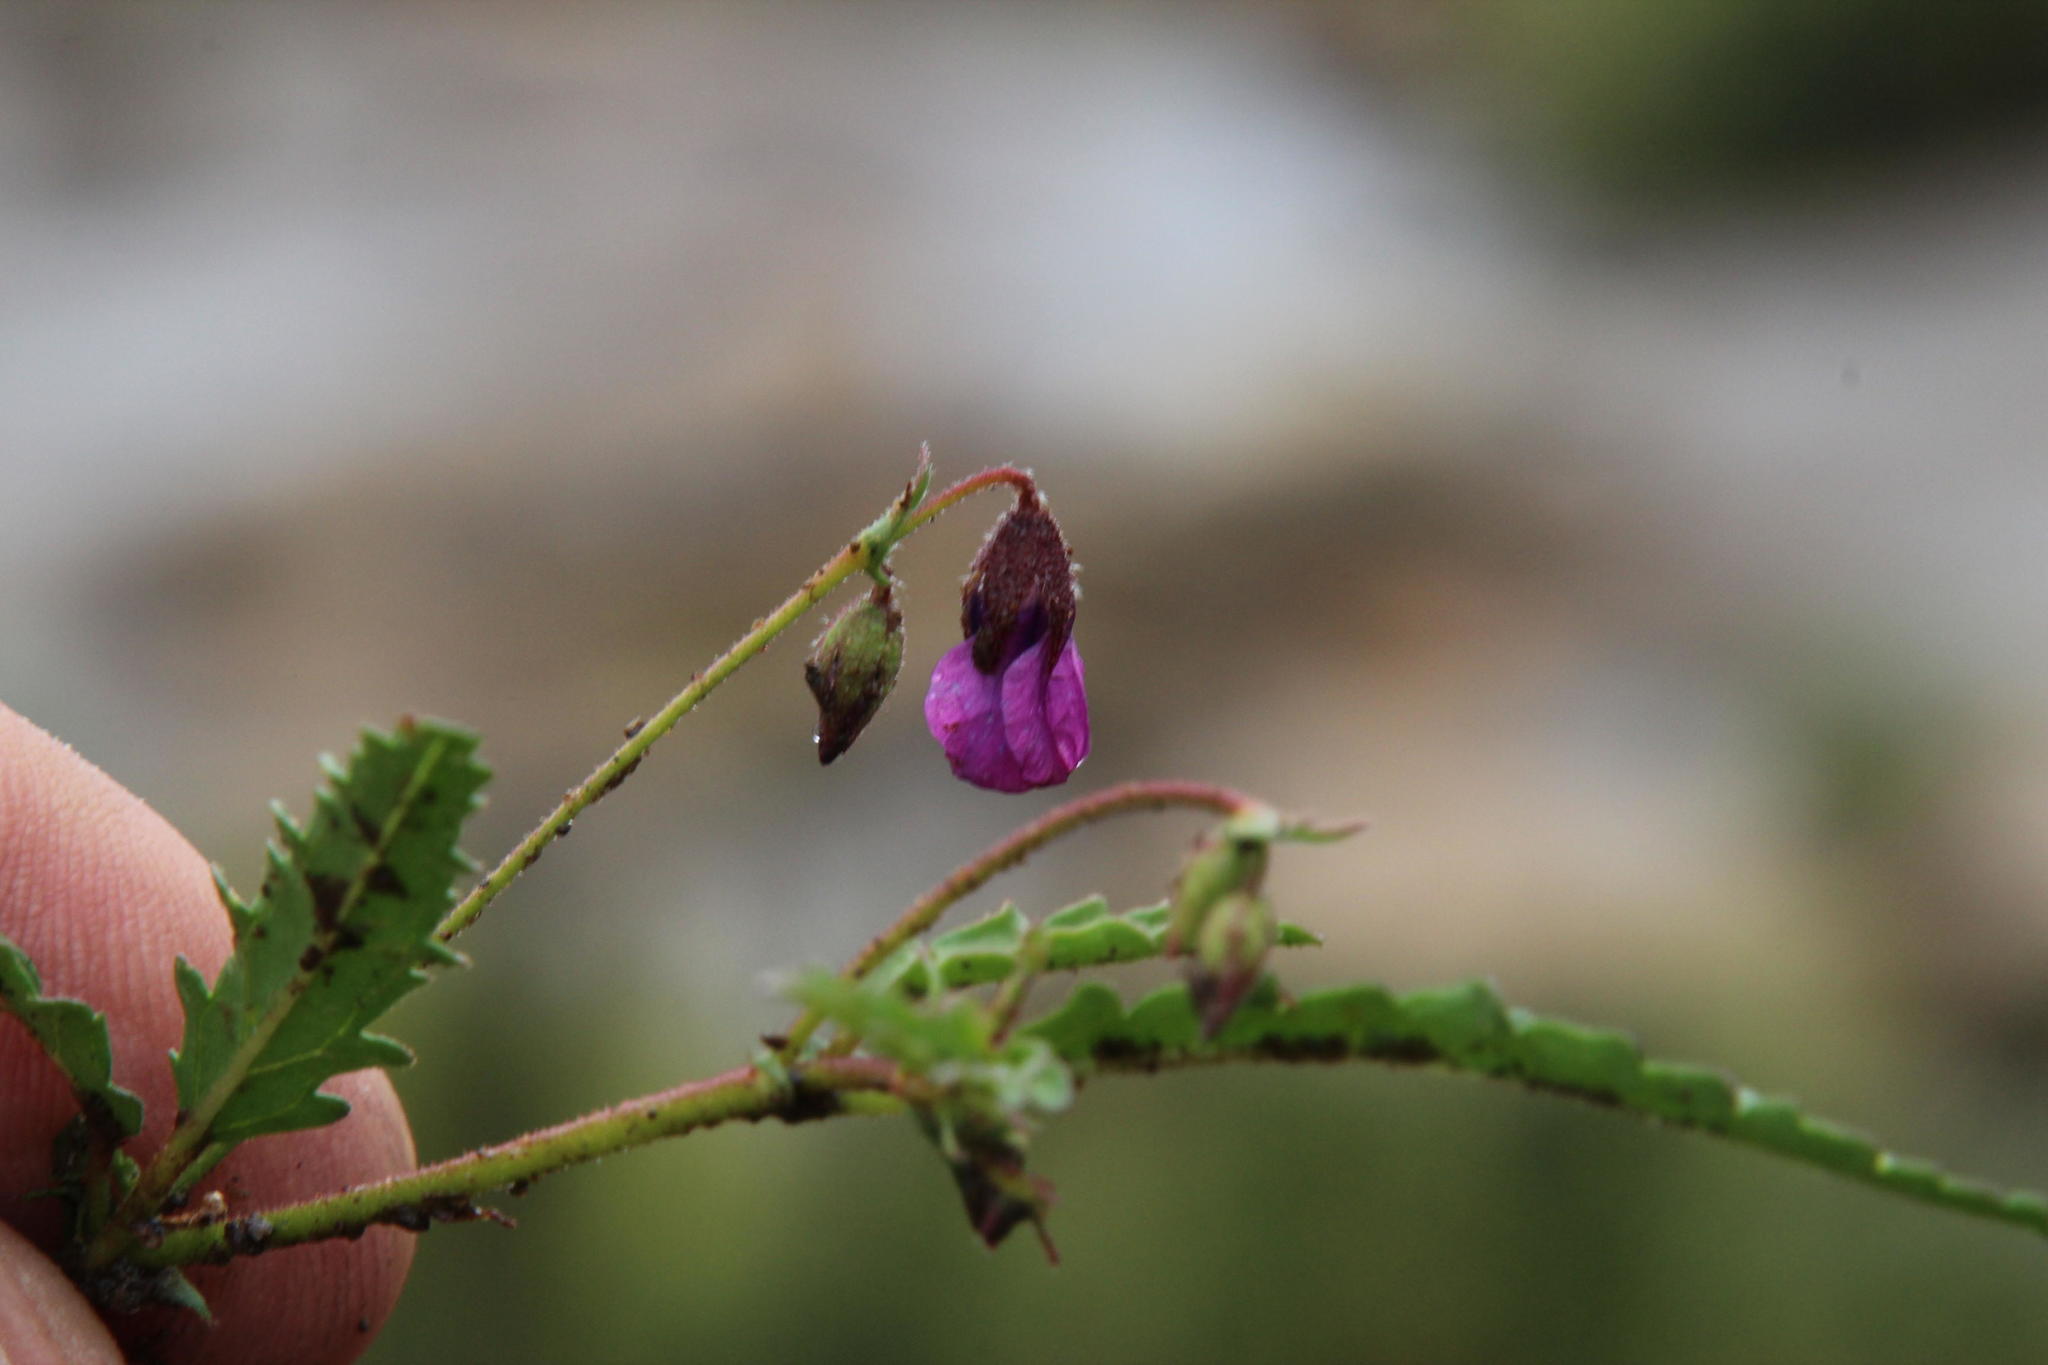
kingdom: Plantae
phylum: Tracheophyta
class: Magnoliopsida
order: Malvales
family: Malvaceae
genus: Hermannia
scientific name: Hermannia coccocarpa
